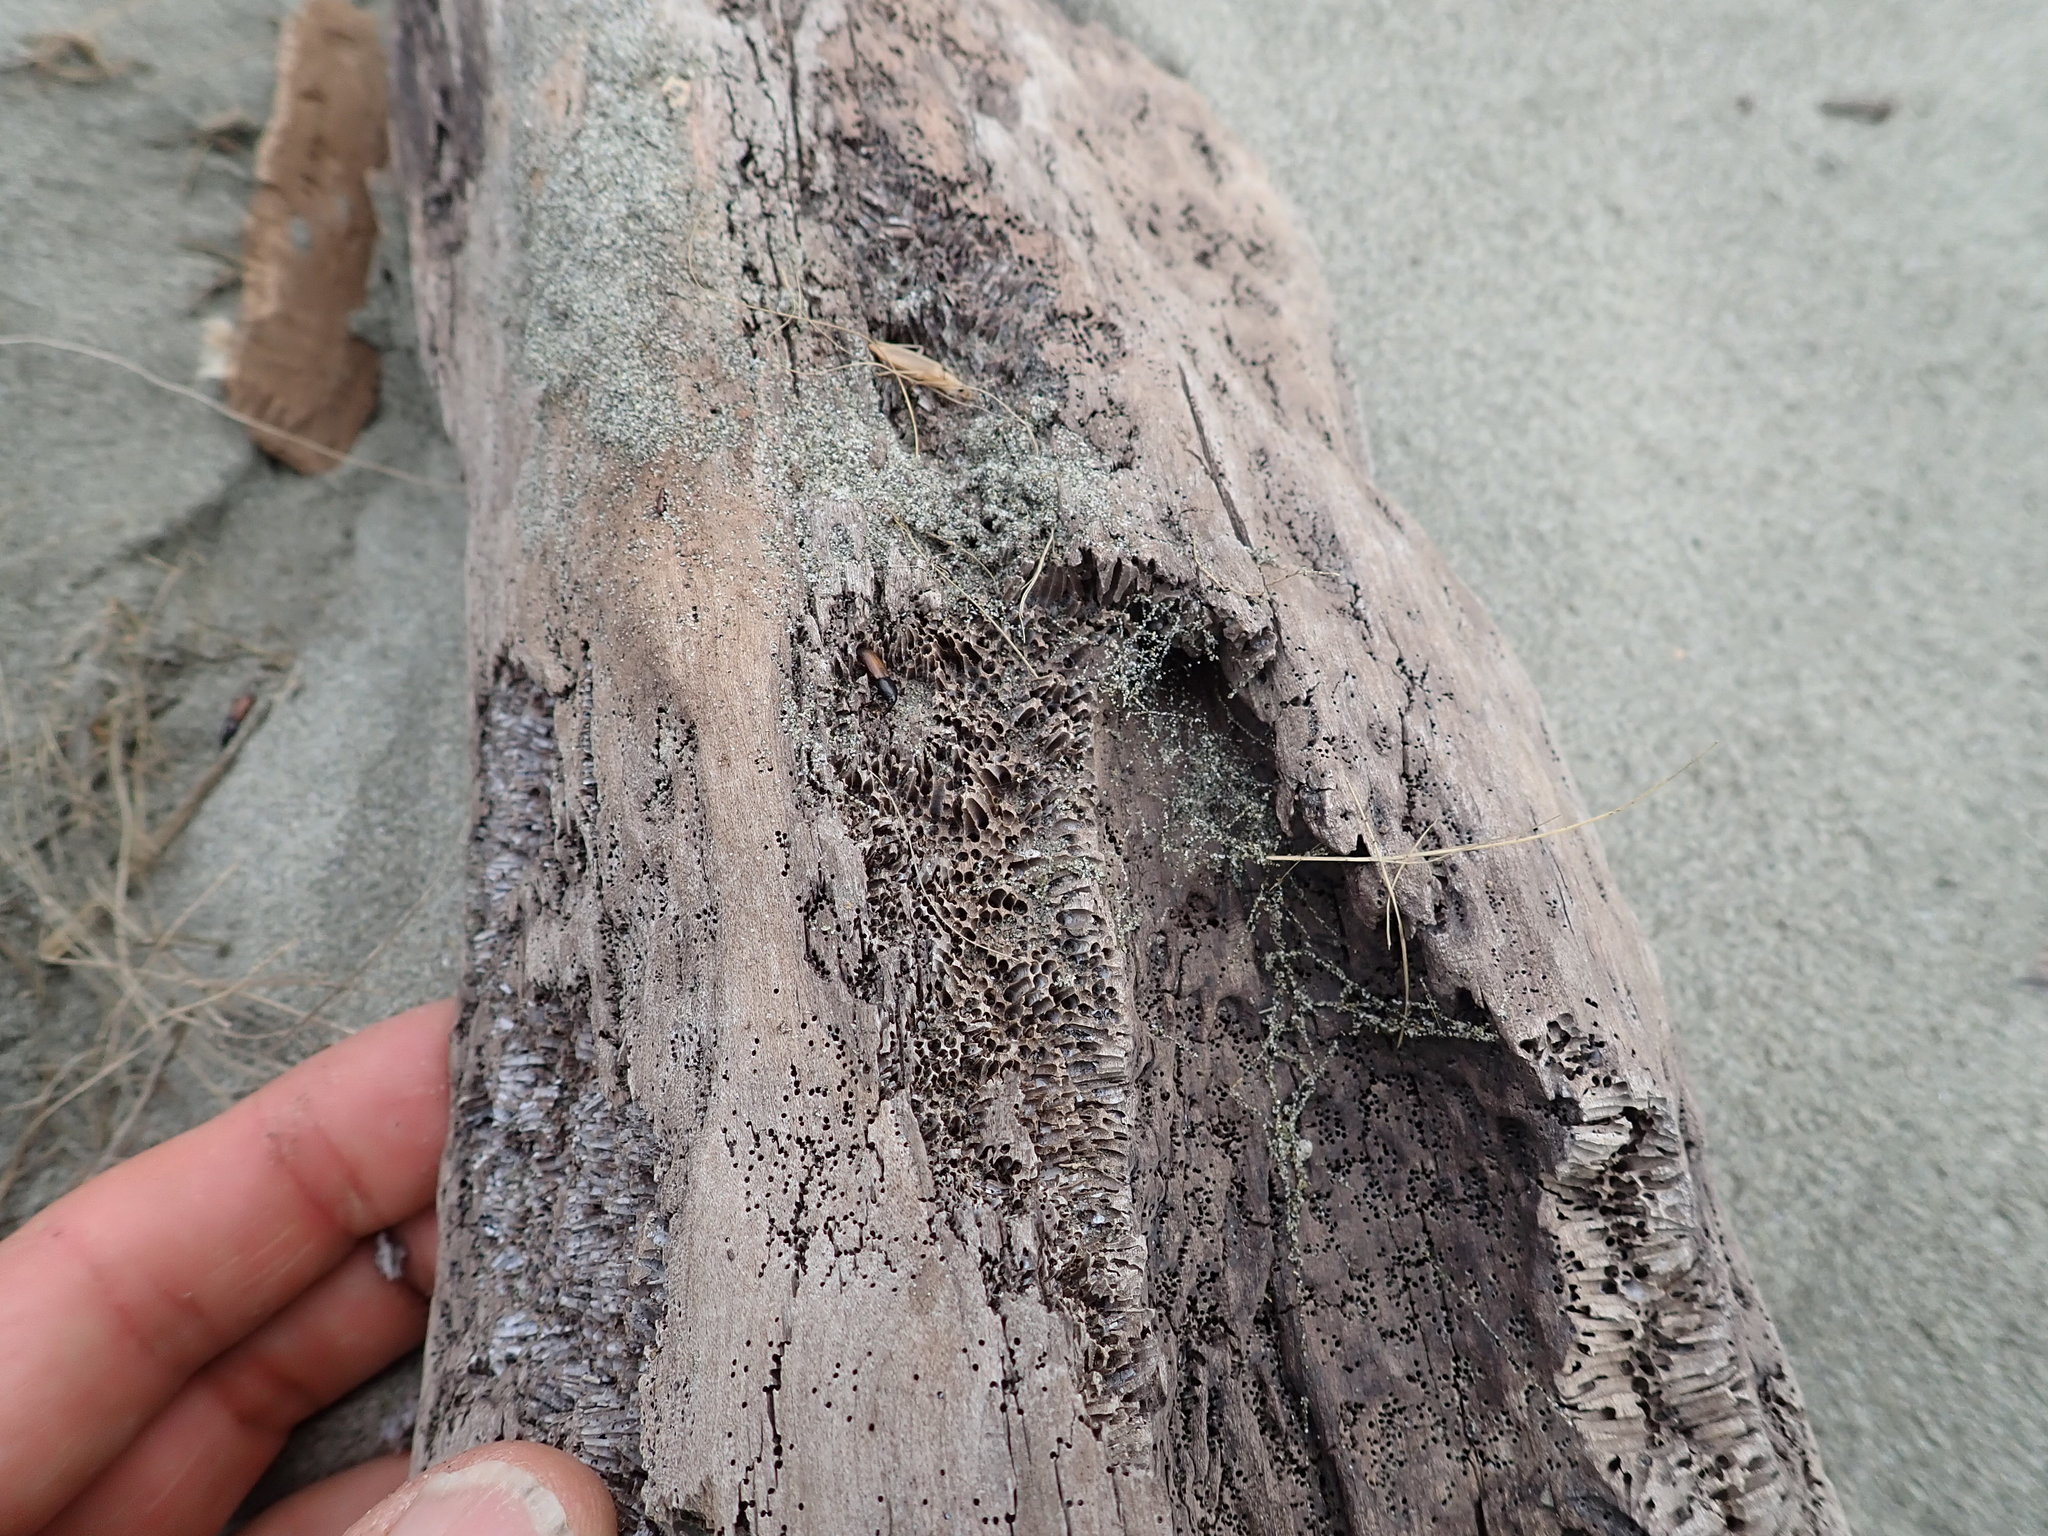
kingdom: Animalia
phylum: Arthropoda
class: Insecta
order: Coleoptera
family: Curculionidae
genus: Mesites
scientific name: Mesites pallidipennis
